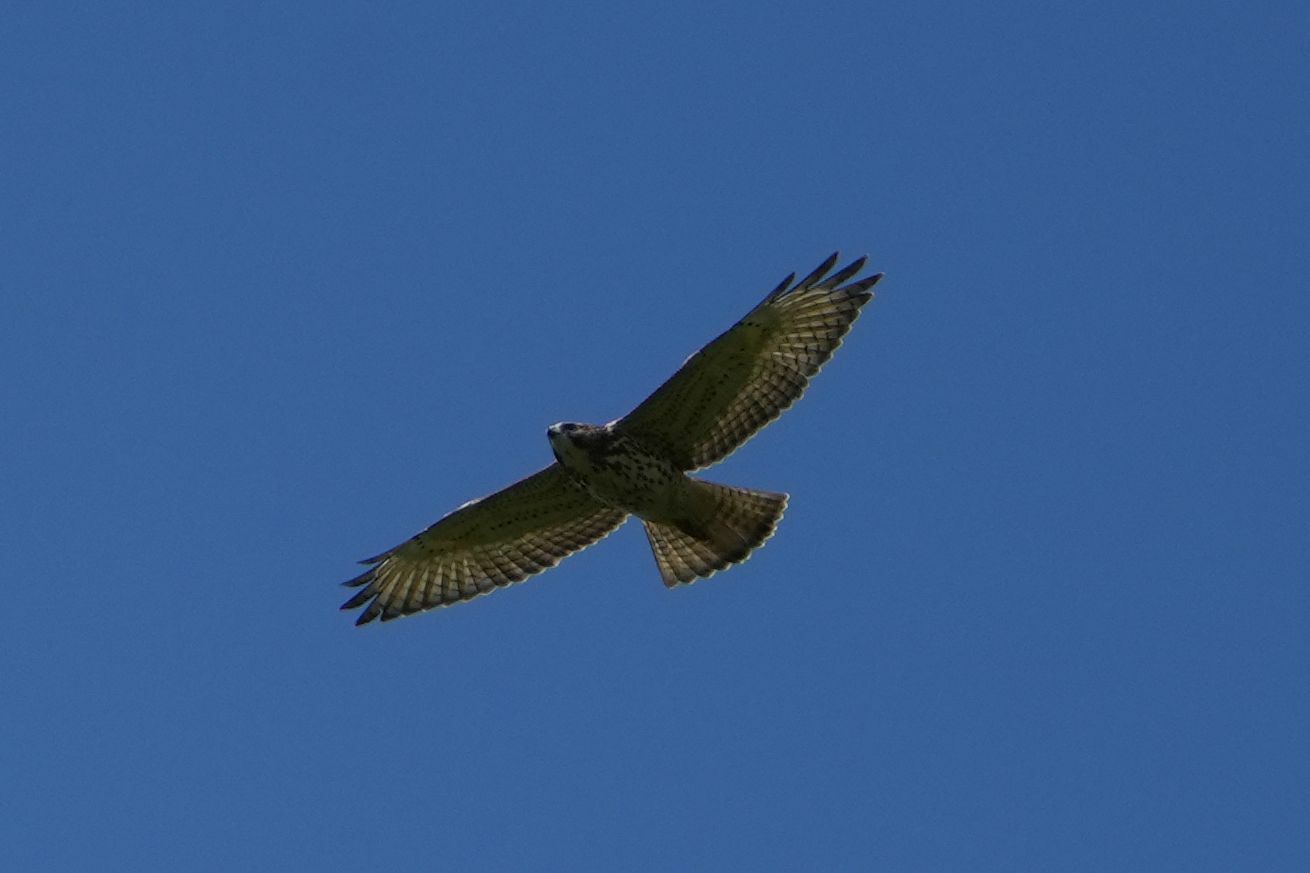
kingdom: Animalia
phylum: Chordata
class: Aves
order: Accipitriformes
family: Accipitridae
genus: Buteo
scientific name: Buteo platypterus
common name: Broad-winged hawk
